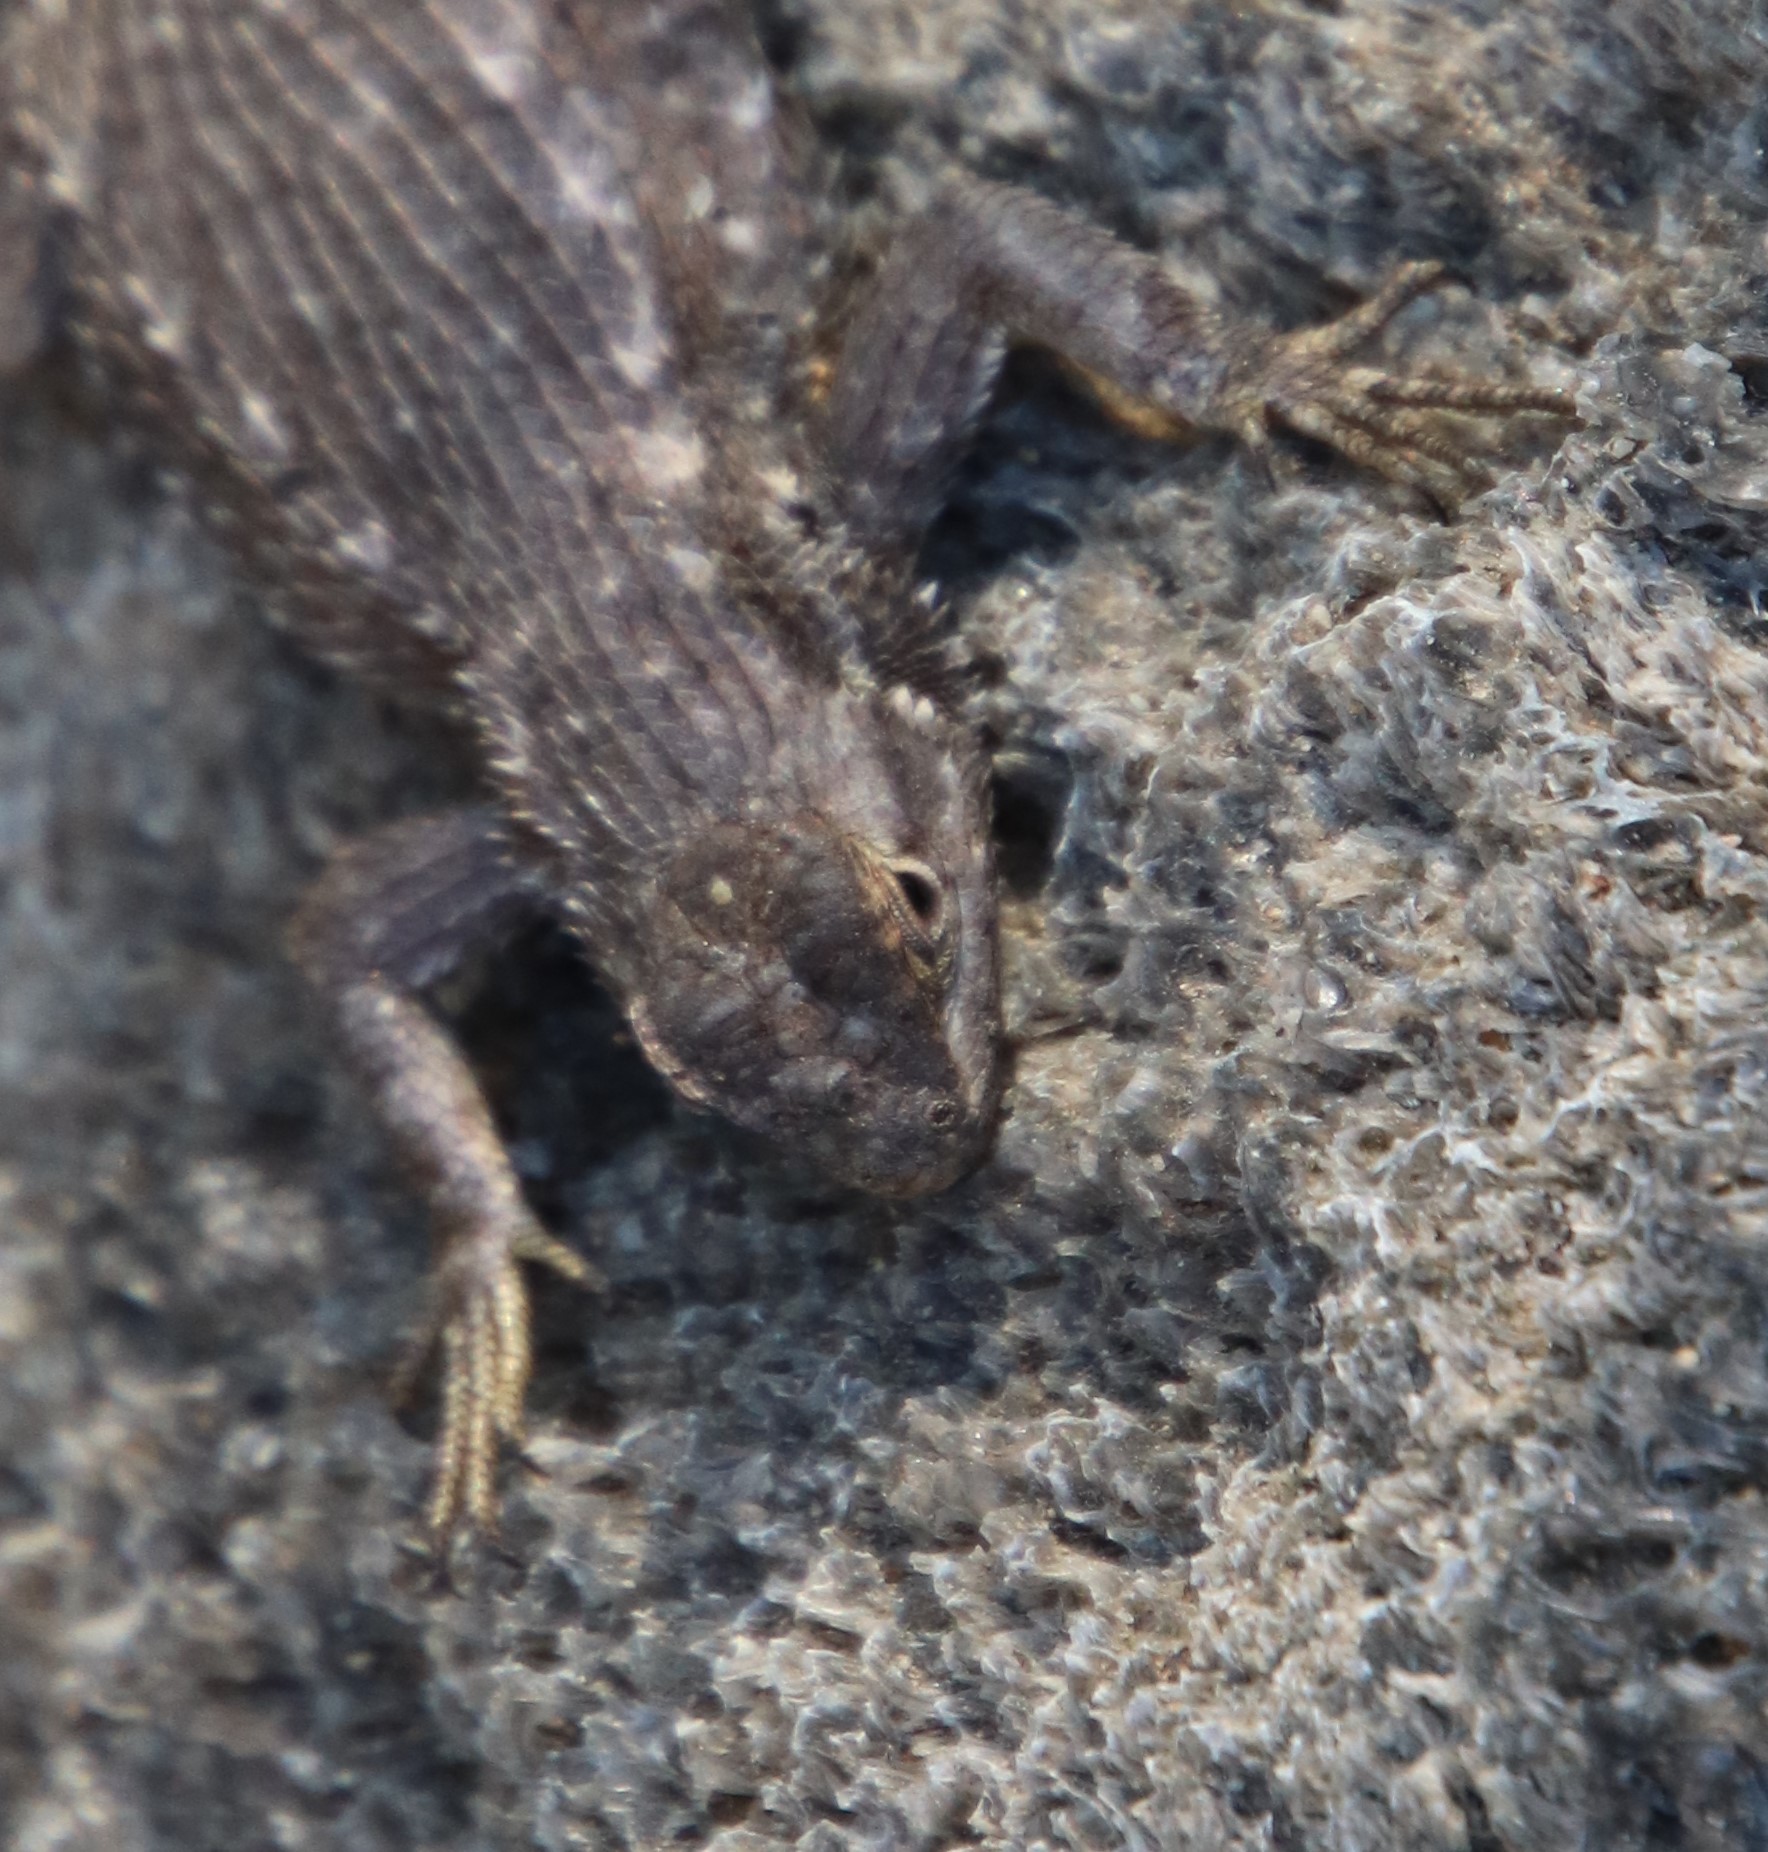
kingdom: Animalia
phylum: Chordata
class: Squamata
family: Phrynosomatidae
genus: Sceloporus
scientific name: Sceloporus occidentalis
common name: Western fence lizard
